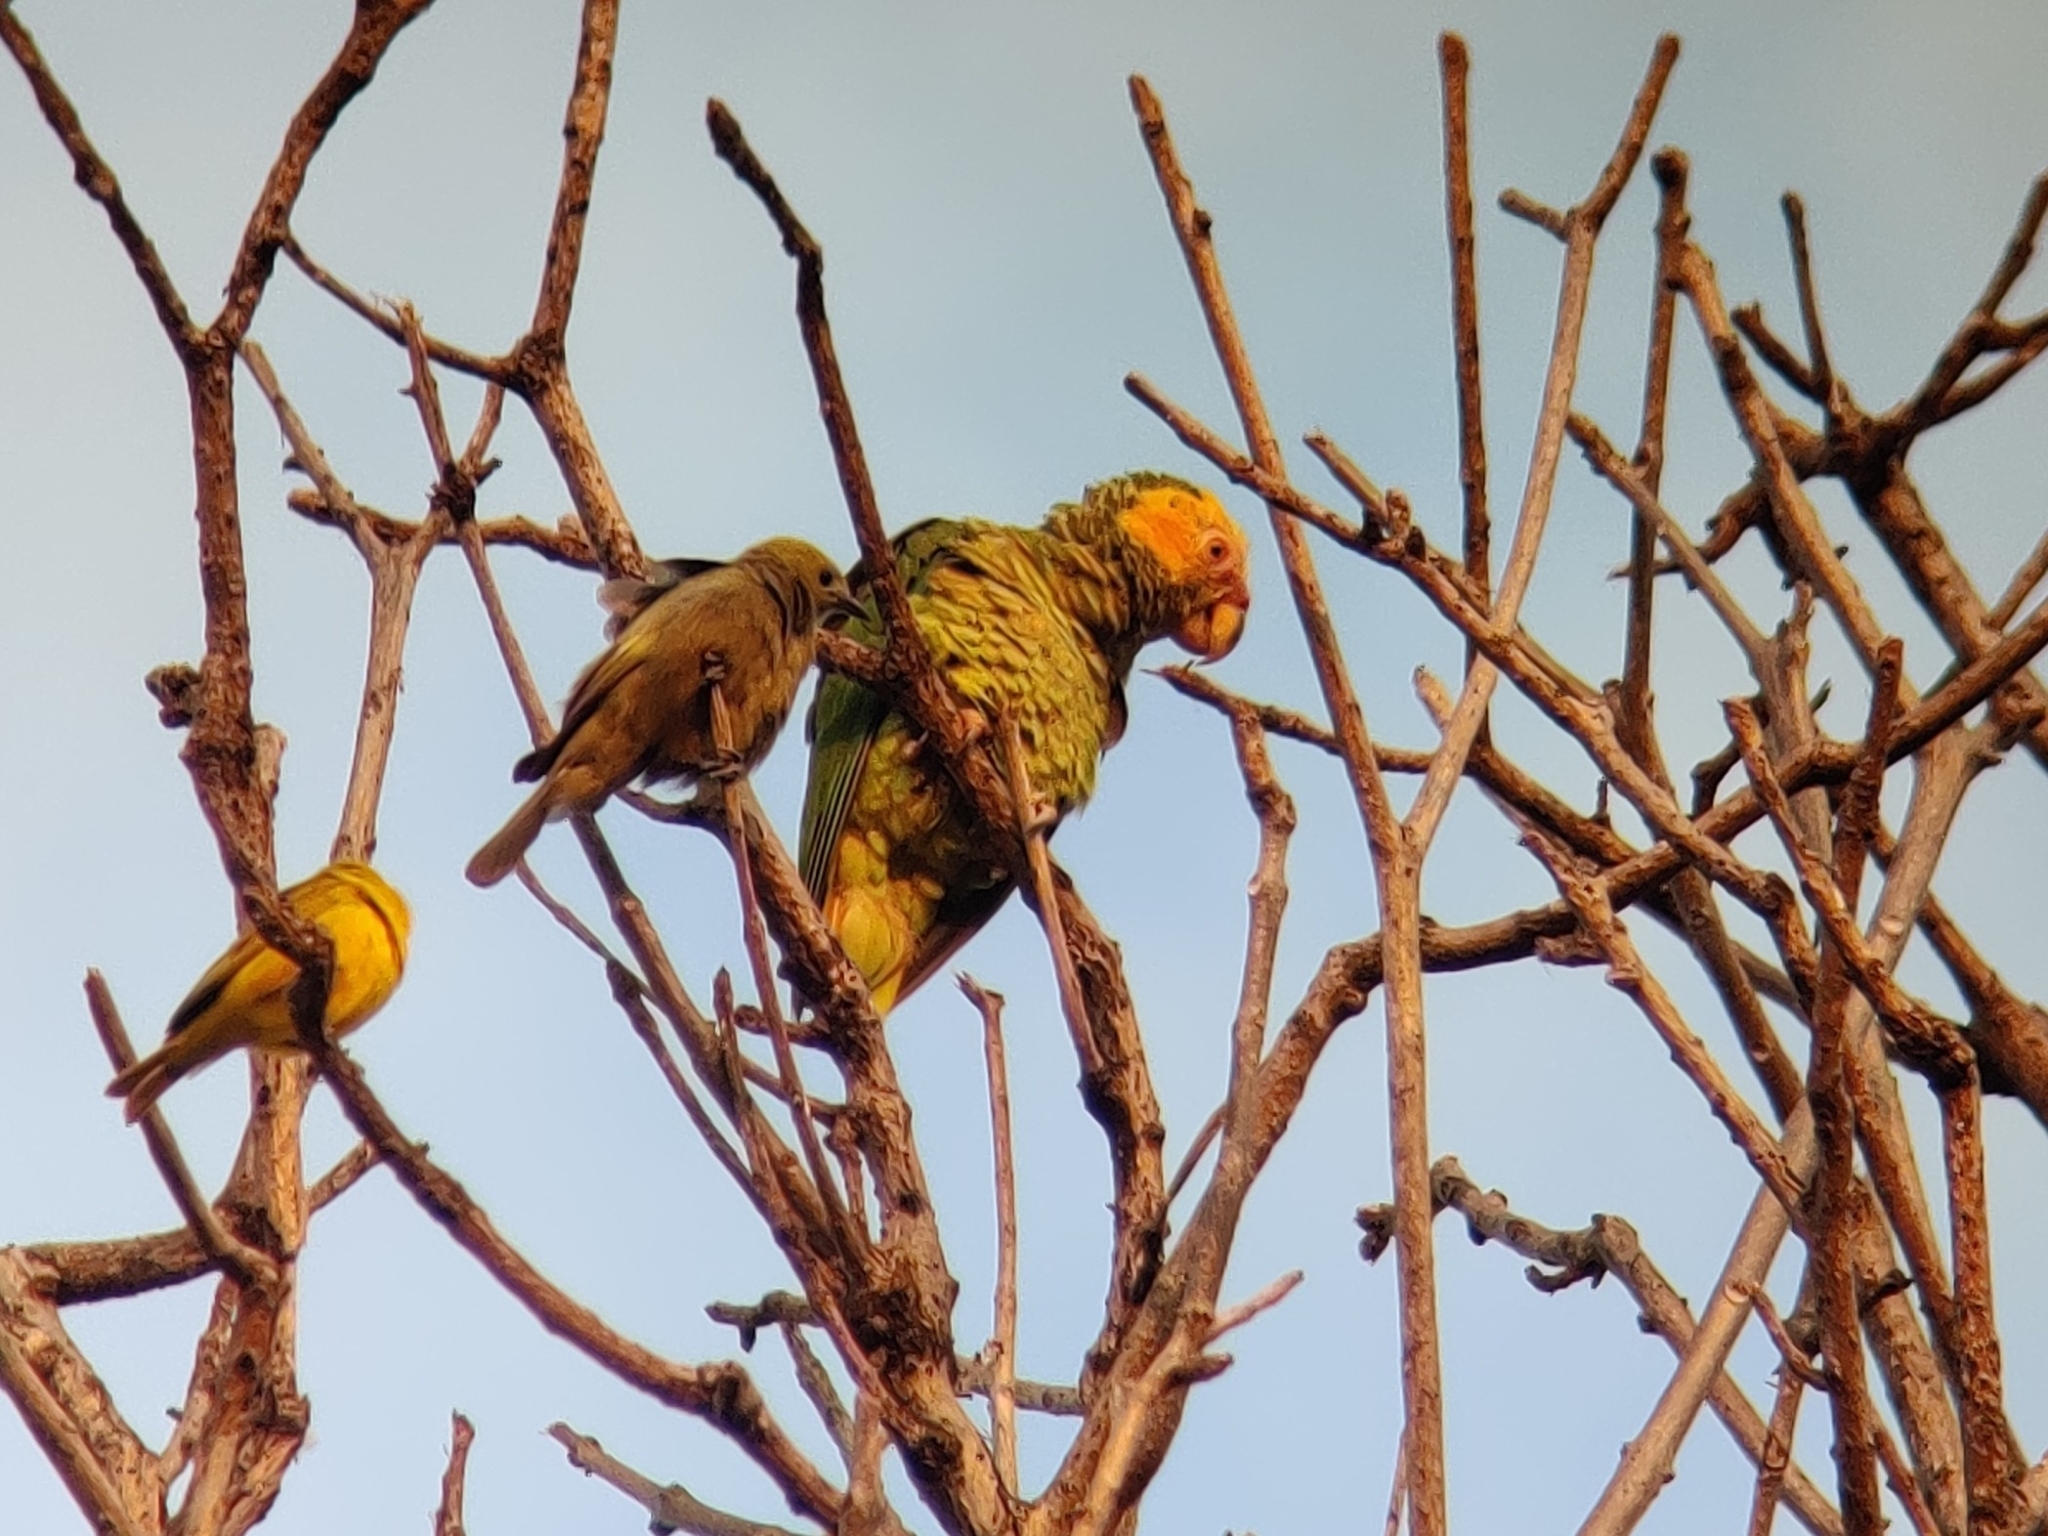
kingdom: Animalia
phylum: Chordata
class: Aves
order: Psittaciformes
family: Psittacidae
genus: Amazona
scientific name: Amazona xanthops
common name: Yellow-faced amazon
